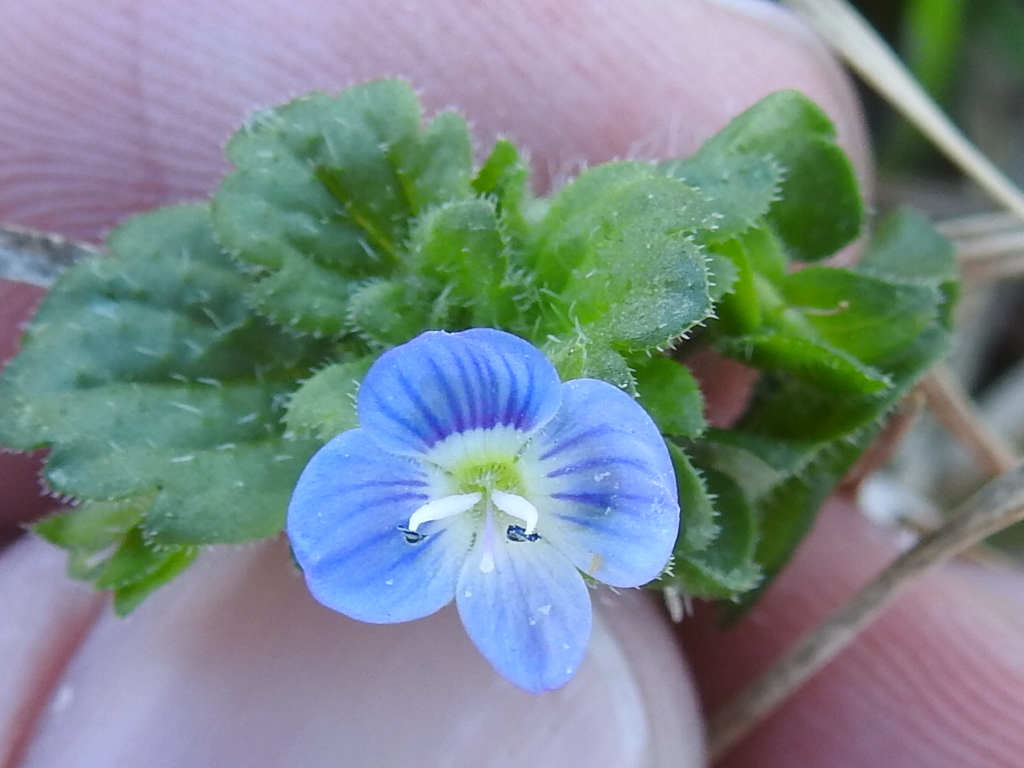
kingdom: Plantae
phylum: Tracheophyta
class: Magnoliopsida
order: Lamiales
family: Plantaginaceae
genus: Veronica
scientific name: Veronica persica
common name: Common field-speedwell
